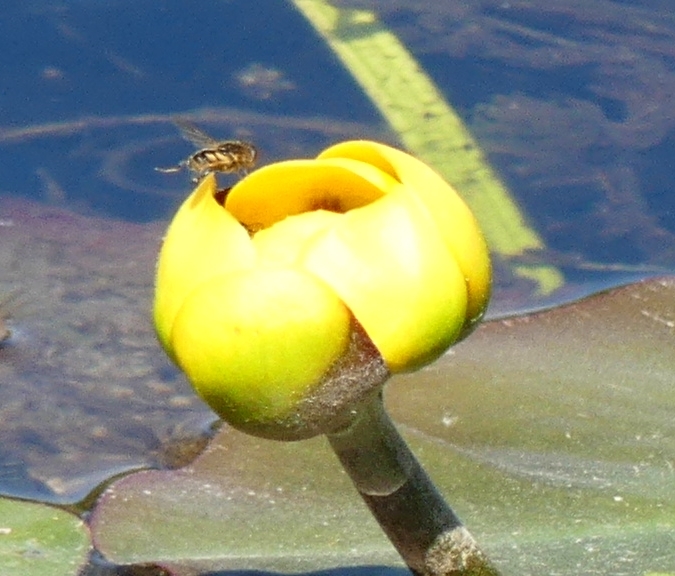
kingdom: Plantae
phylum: Tracheophyta
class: Magnoliopsida
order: Nymphaeales
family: Nymphaeaceae
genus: Nuphar
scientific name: Nuphar variegata
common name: Beaver-root
